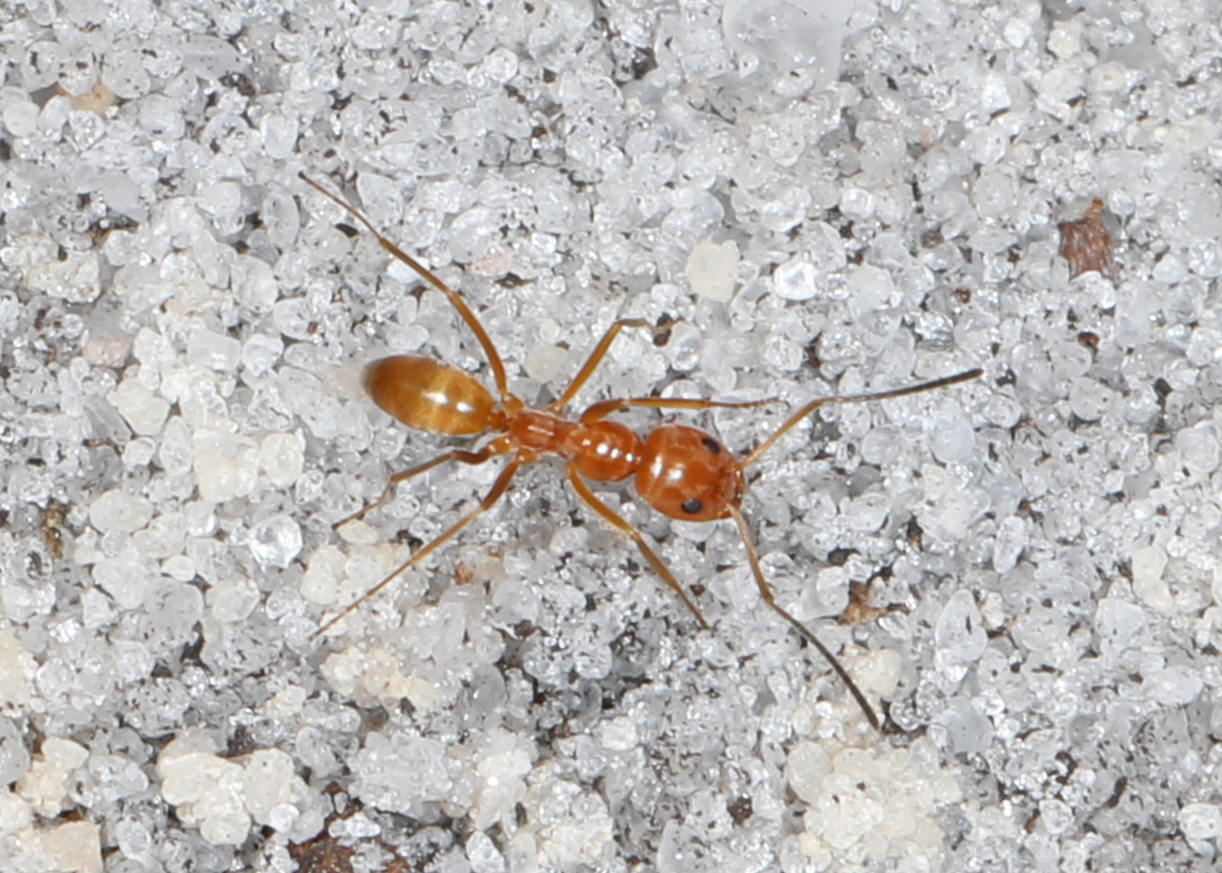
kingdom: Animalia
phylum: Arthropoda
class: Insecta
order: Hymenoptera
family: Formicidae
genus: Dorymyrmex
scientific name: Dorymyrmex bureni
